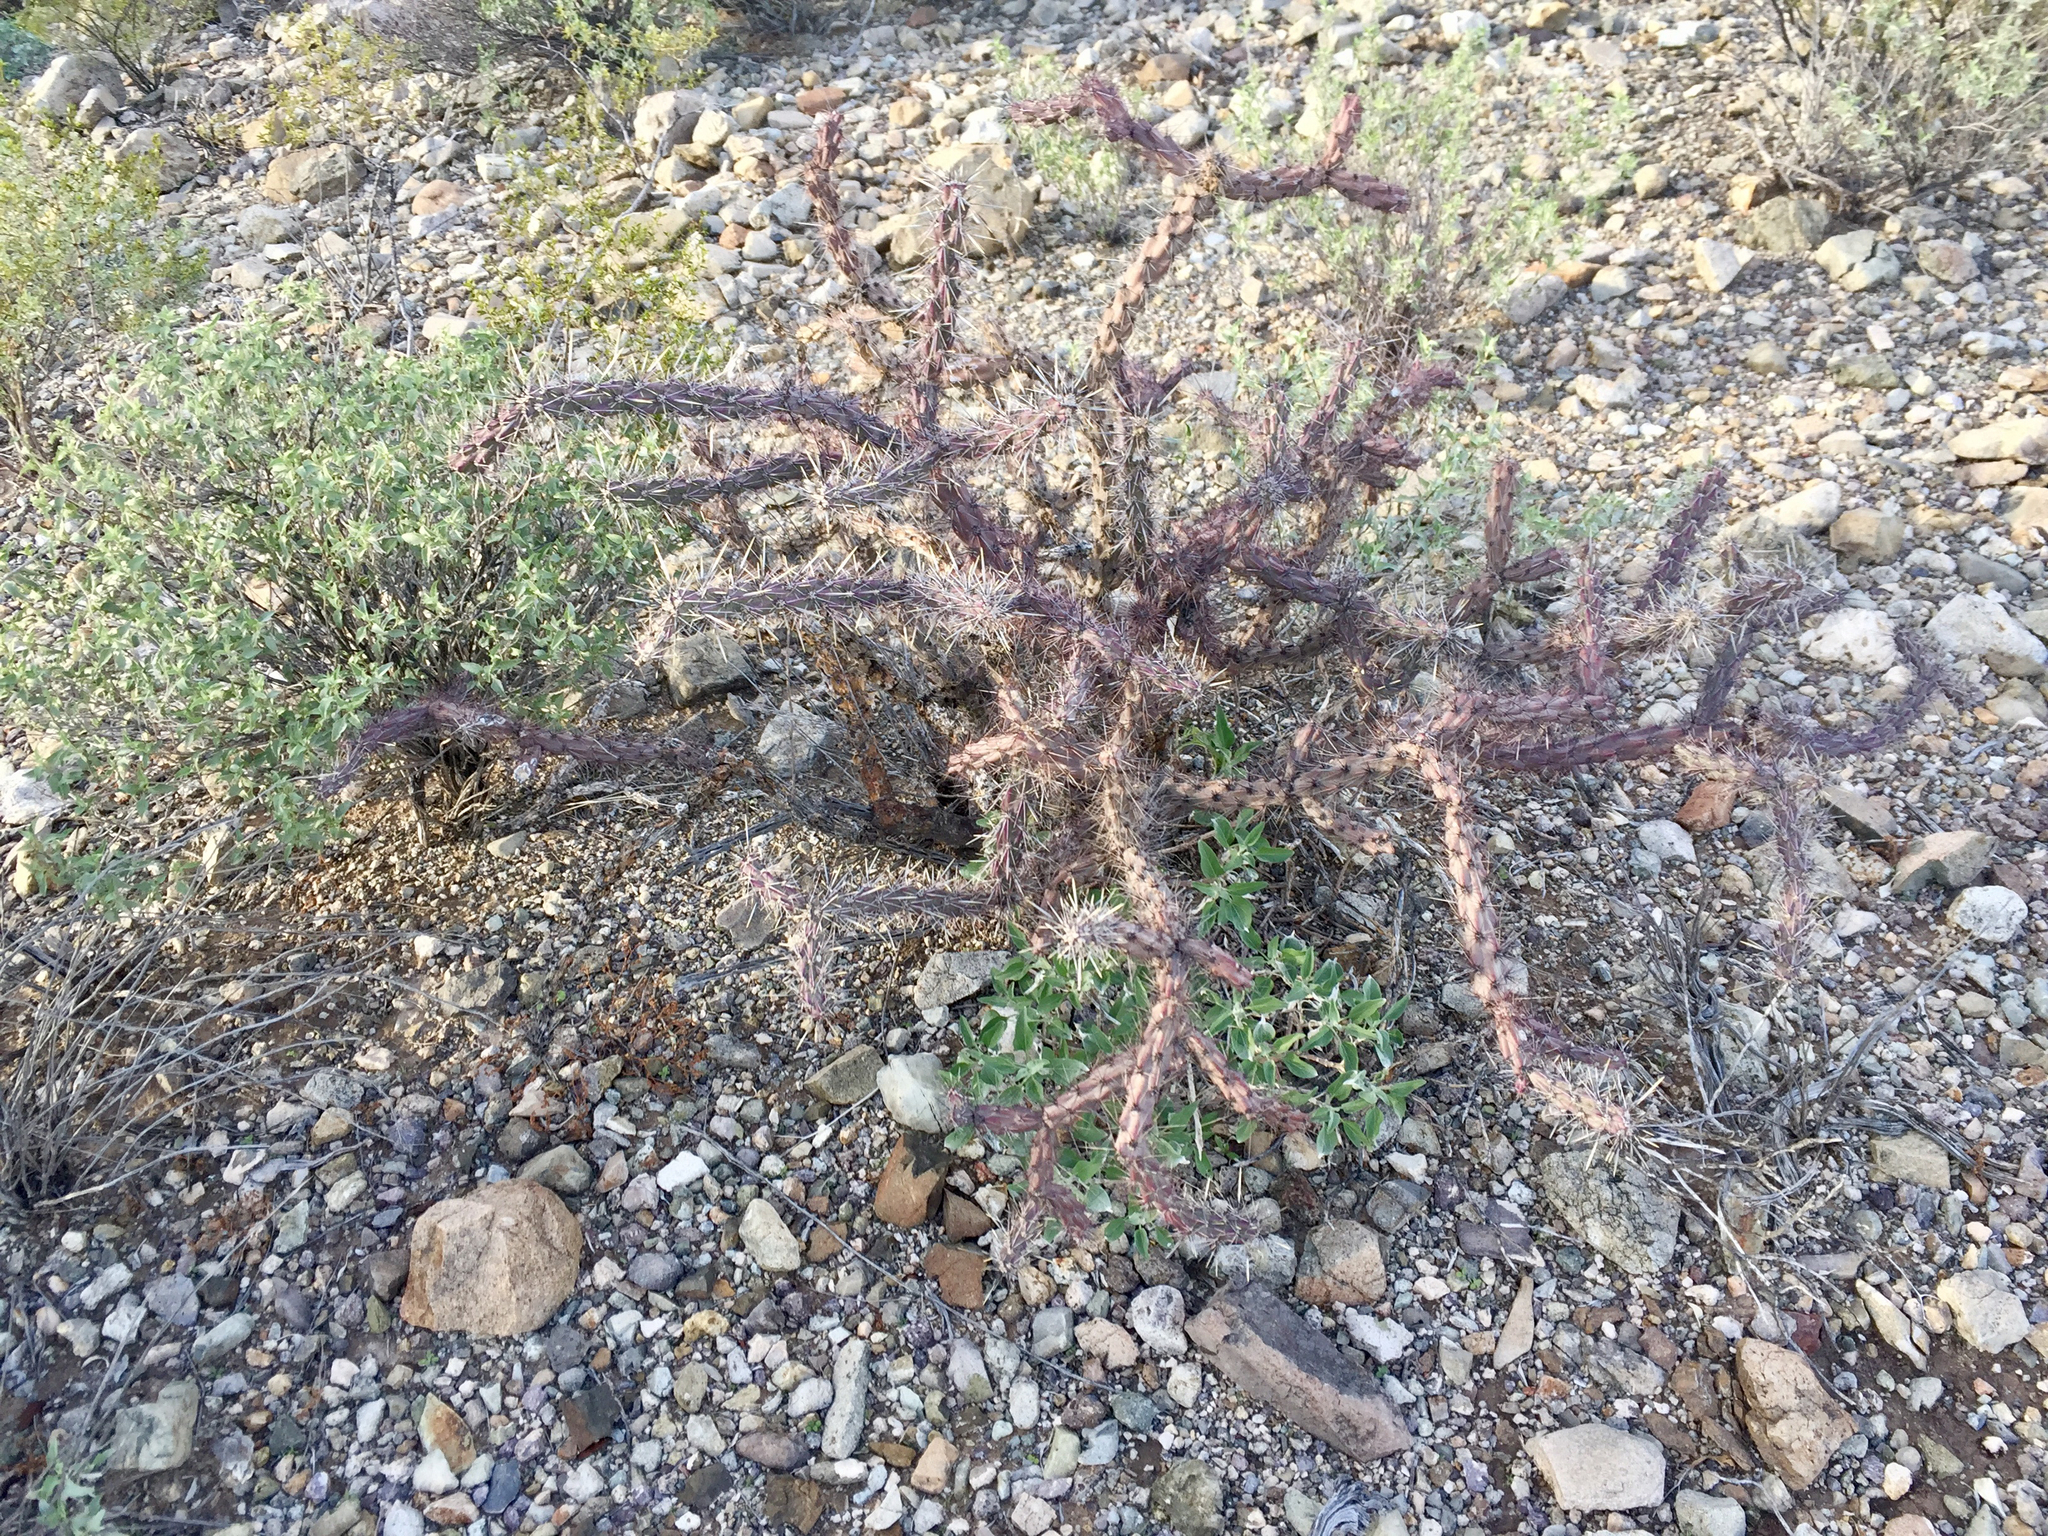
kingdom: Plantae
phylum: Tracheophyta
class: Magnoliopsida
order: Caryophyllales
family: Cactaceae
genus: Cylindropuntia
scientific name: Cylindropuntia thurberi
